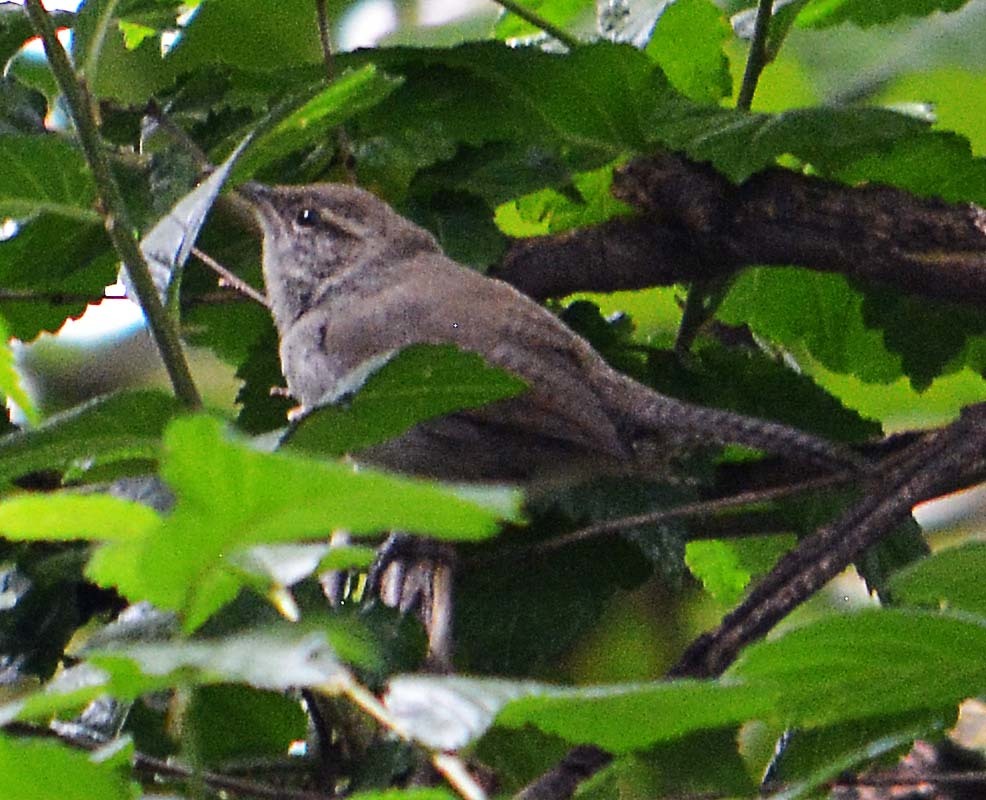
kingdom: Animalia
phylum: Chordata
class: Aves
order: Passeriformes
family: Troglodytidae
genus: Thryomanes
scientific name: Thryomanes bewickii
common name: Bewick's wren
